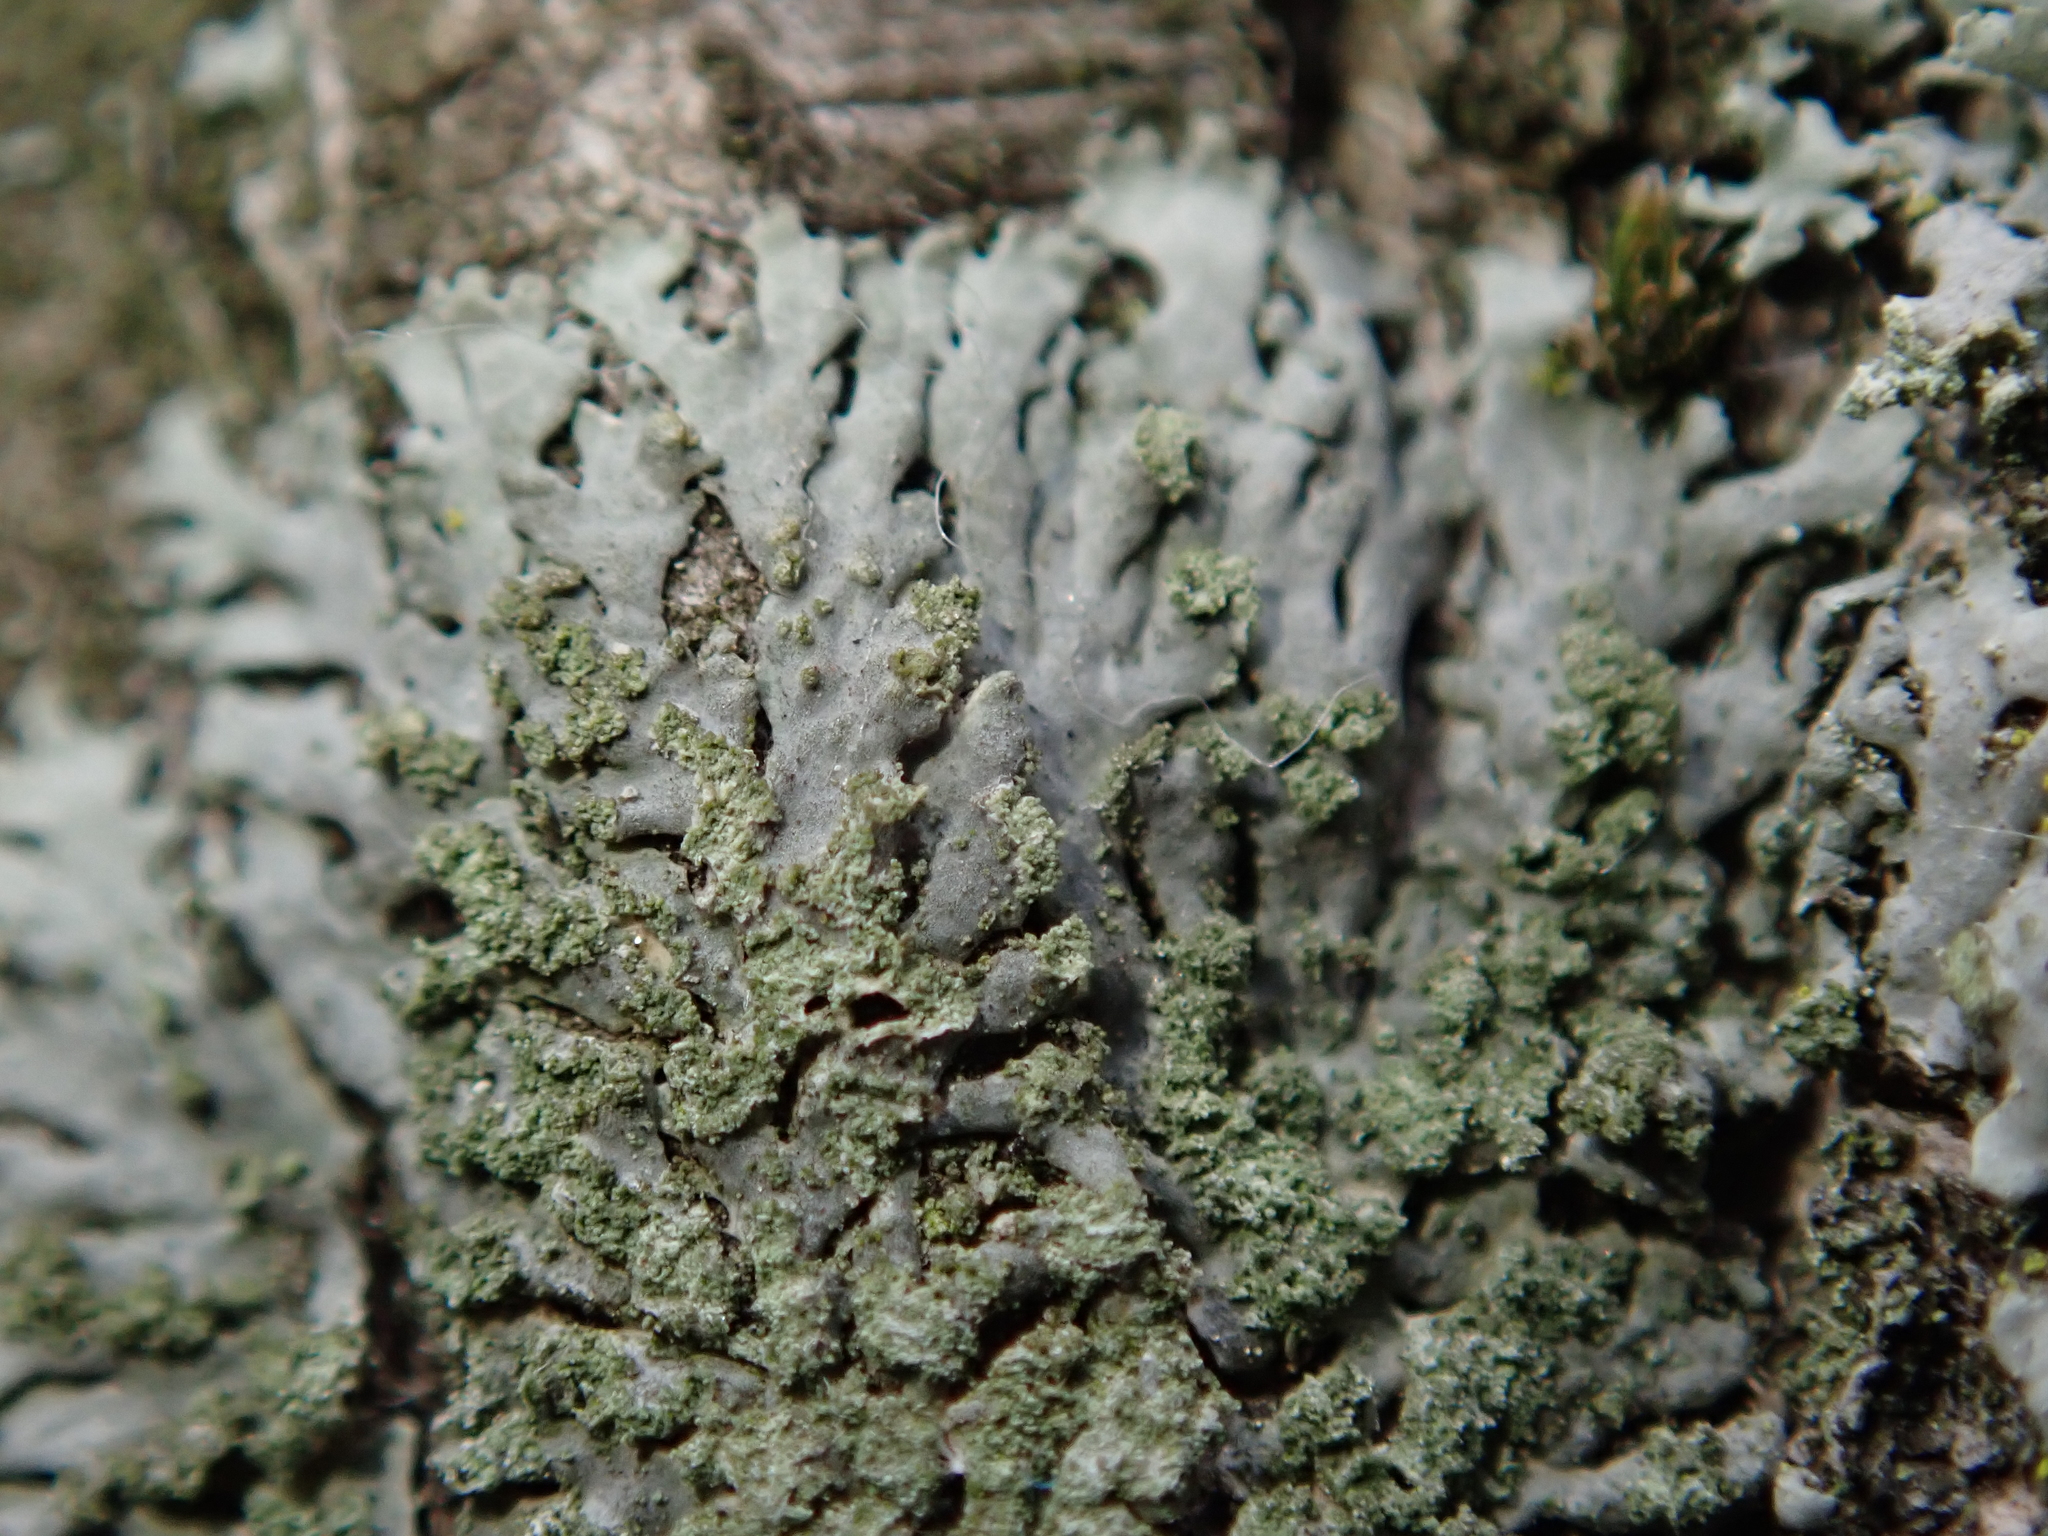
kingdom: Fungi
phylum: Ascomycota
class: Lecanoromycetes
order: Caliciales
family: Physciaceae
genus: Phaeophyscia
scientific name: Phaeophyscia orbicularis
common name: Mealy shadow lichen
